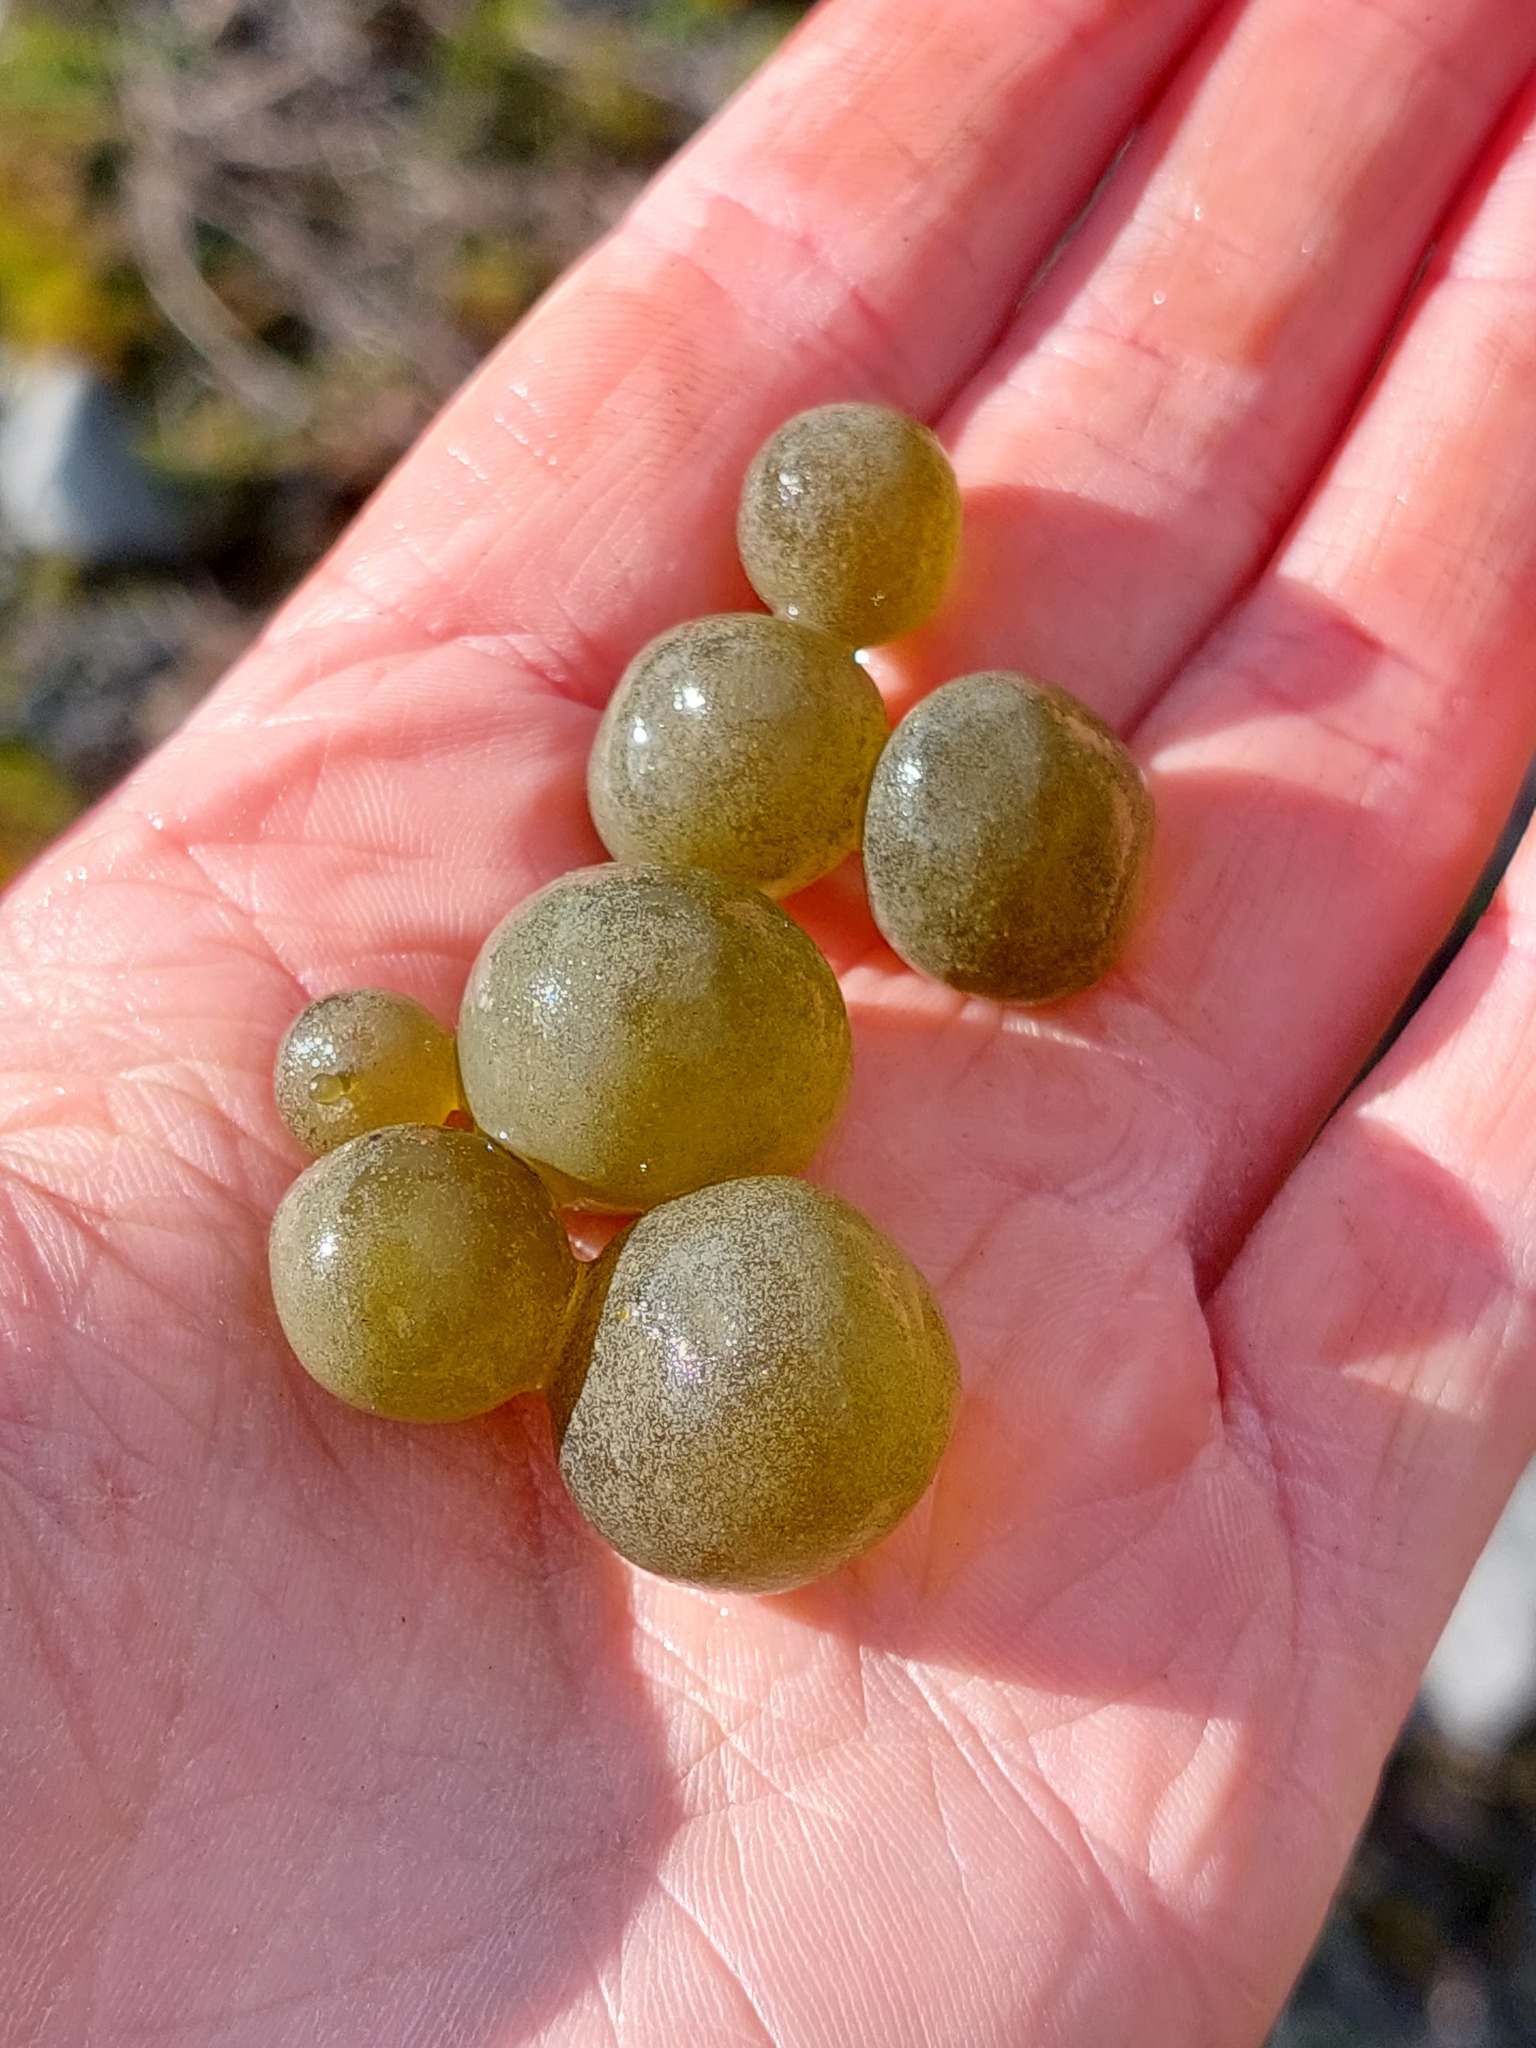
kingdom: Bacteria
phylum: Cyanobacteria
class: Cyanobacteriia
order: Cyanobacteriales
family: Nostocaceae
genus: Nostoc
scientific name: Nostoc pruniforme
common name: Mare's eggs
